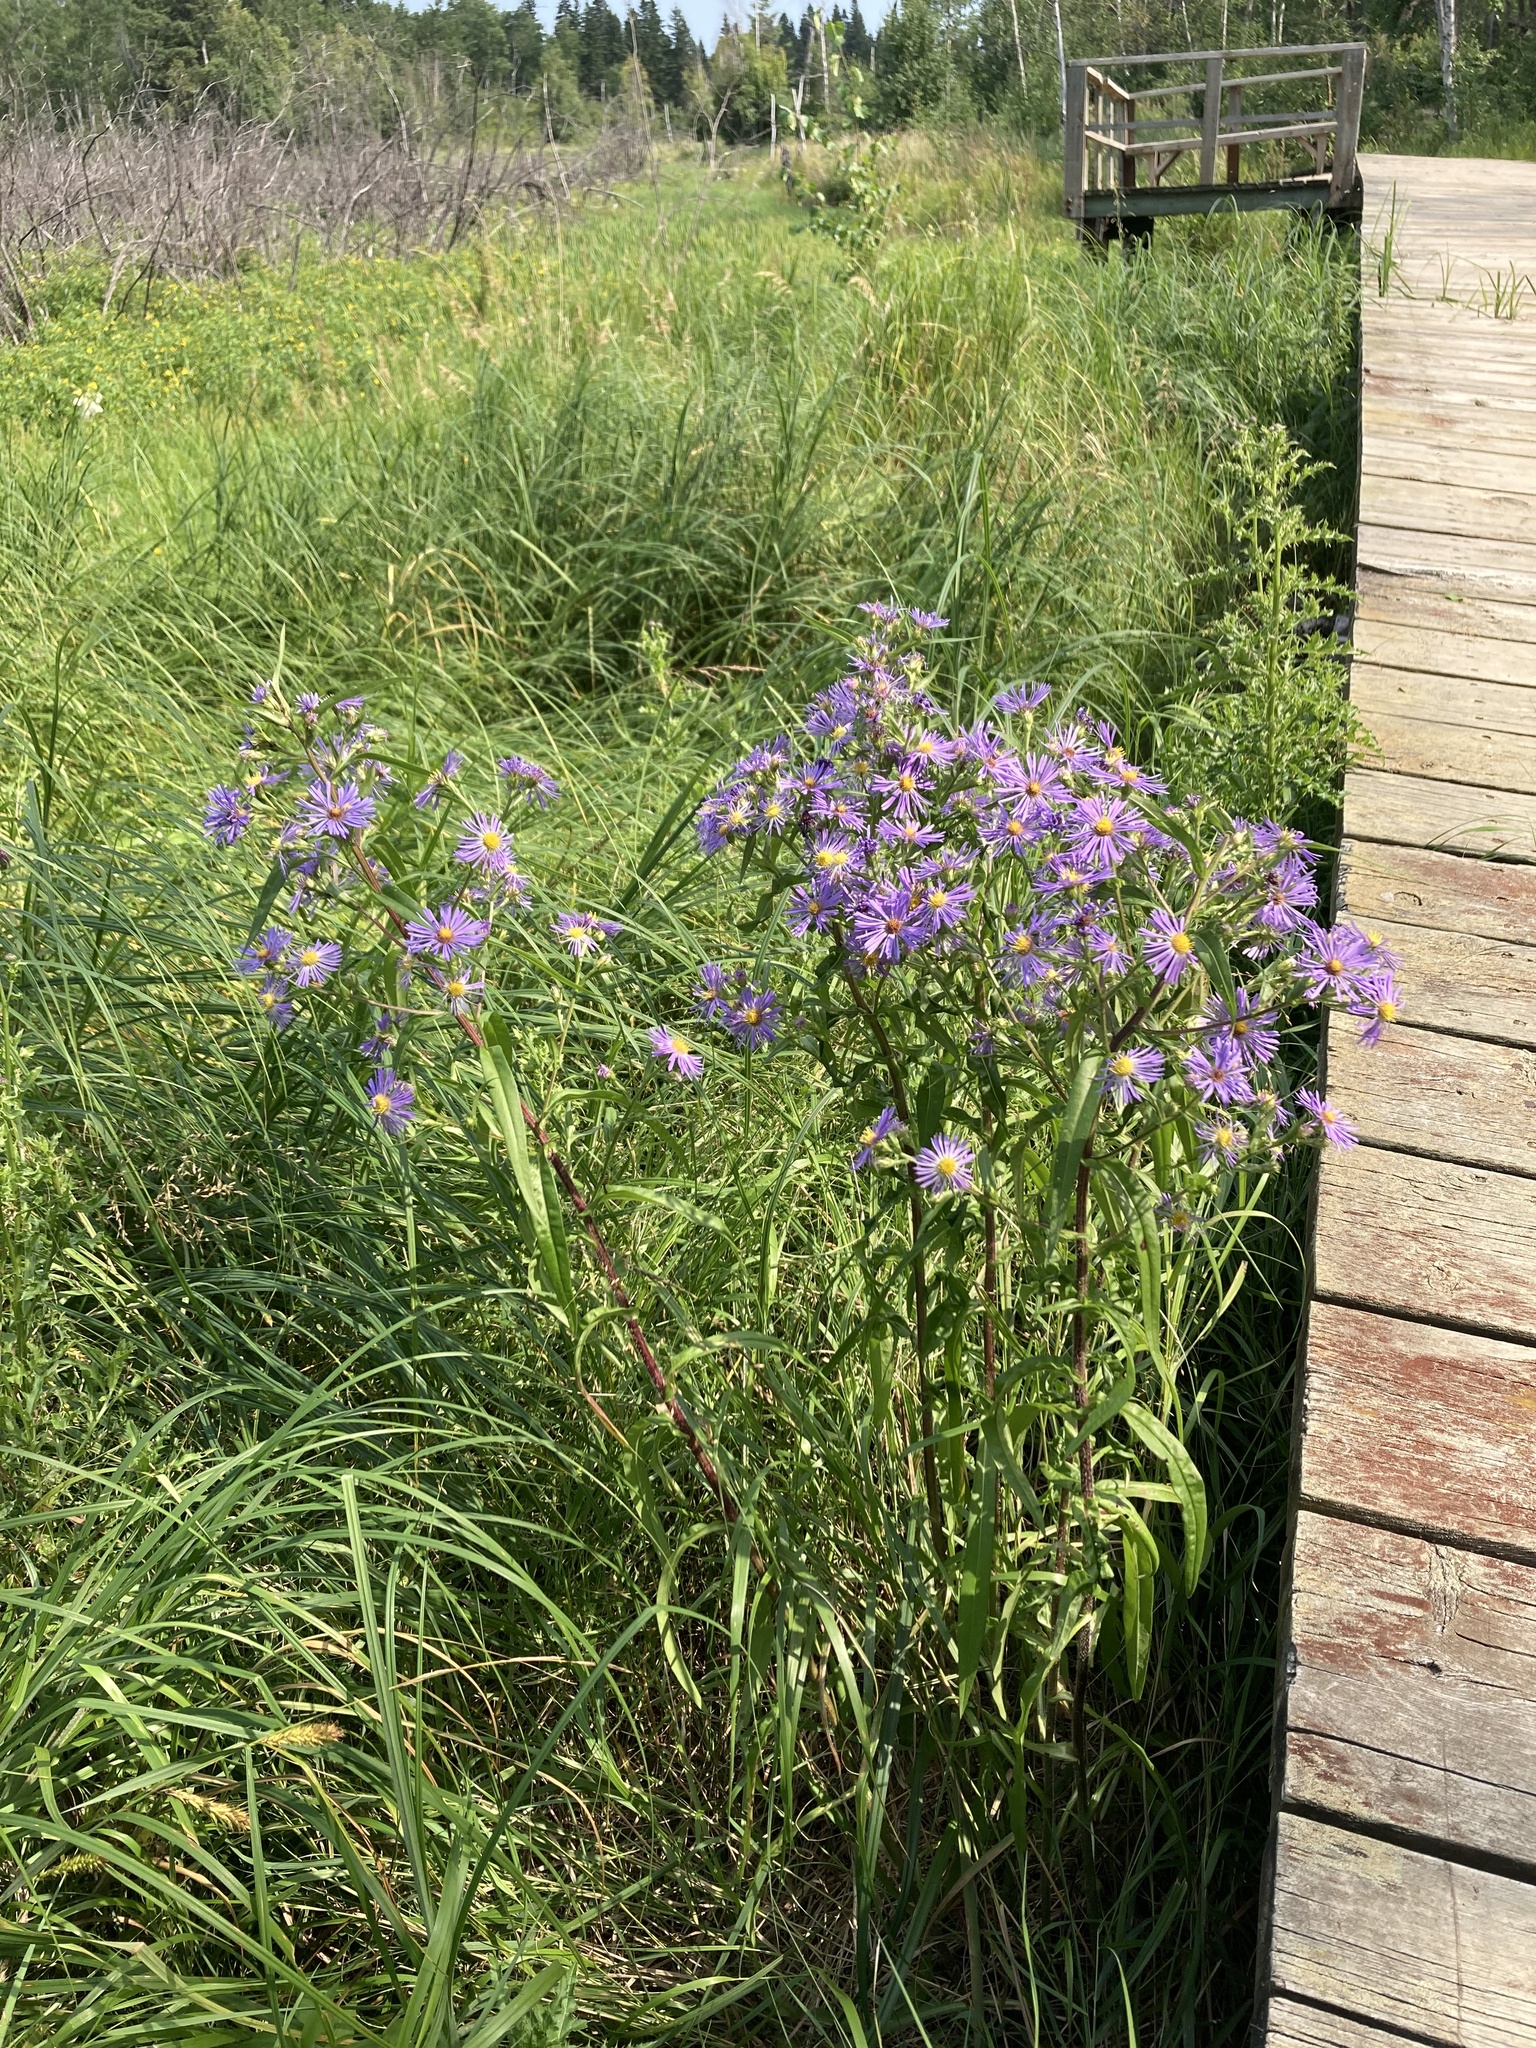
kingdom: Plantae
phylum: Tracheophyta
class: Magnoliopsida
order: Asterales
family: Asteraceae
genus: Symphyotrichum
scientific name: Symphyotrichum puniceum
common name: Bog aster
